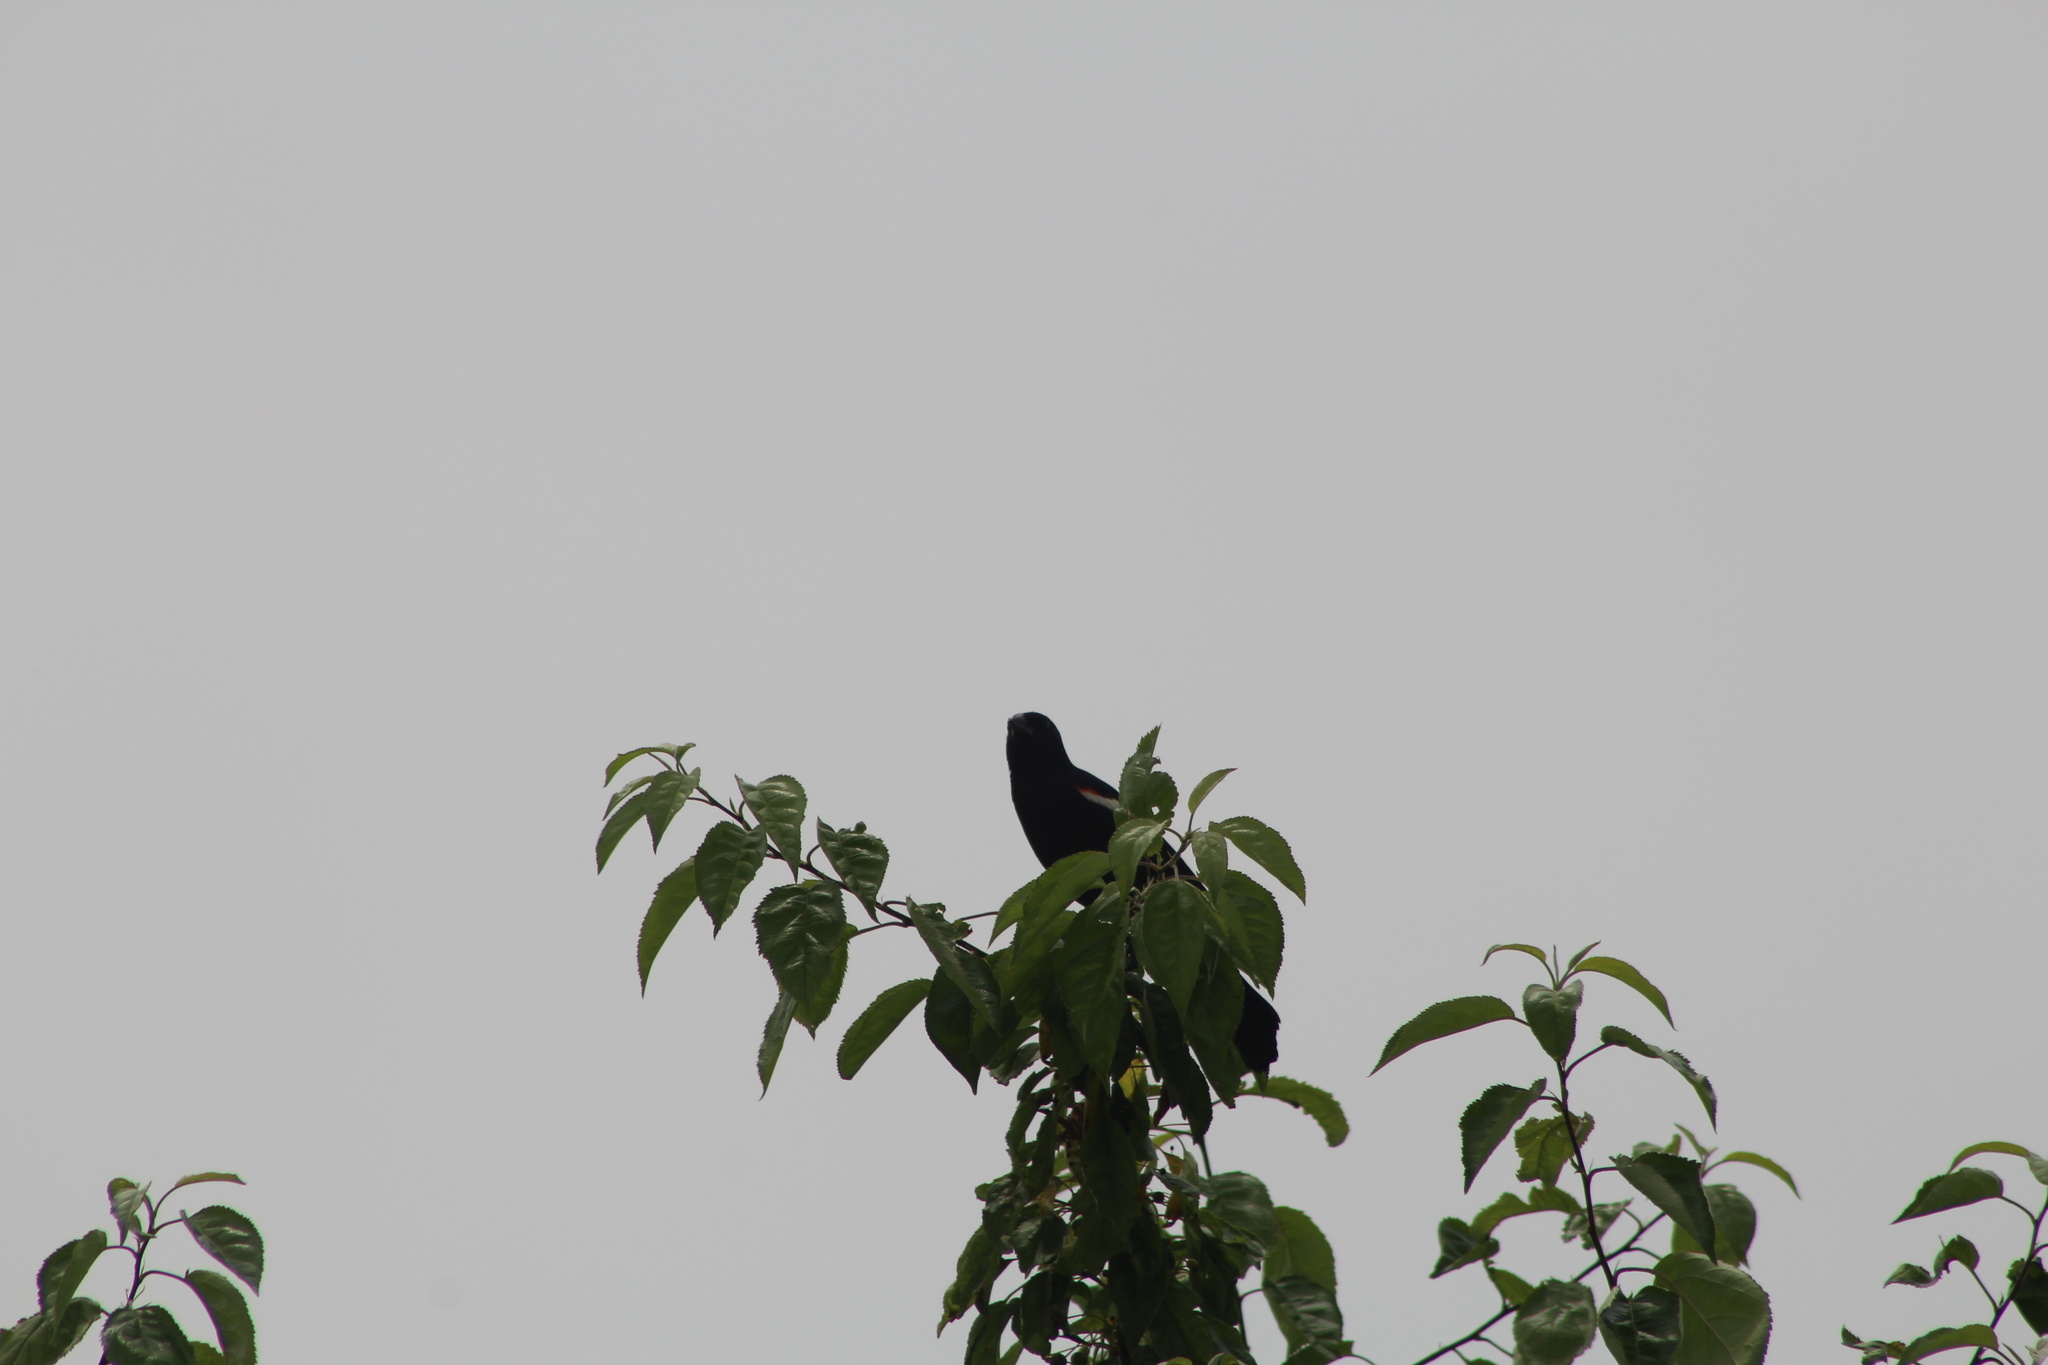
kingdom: Animalia
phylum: Chordata
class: Aves
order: Passeriformes
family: Icteridae
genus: Agelaius
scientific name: Agelaius phoeniceus
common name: Red-winged blackbird
